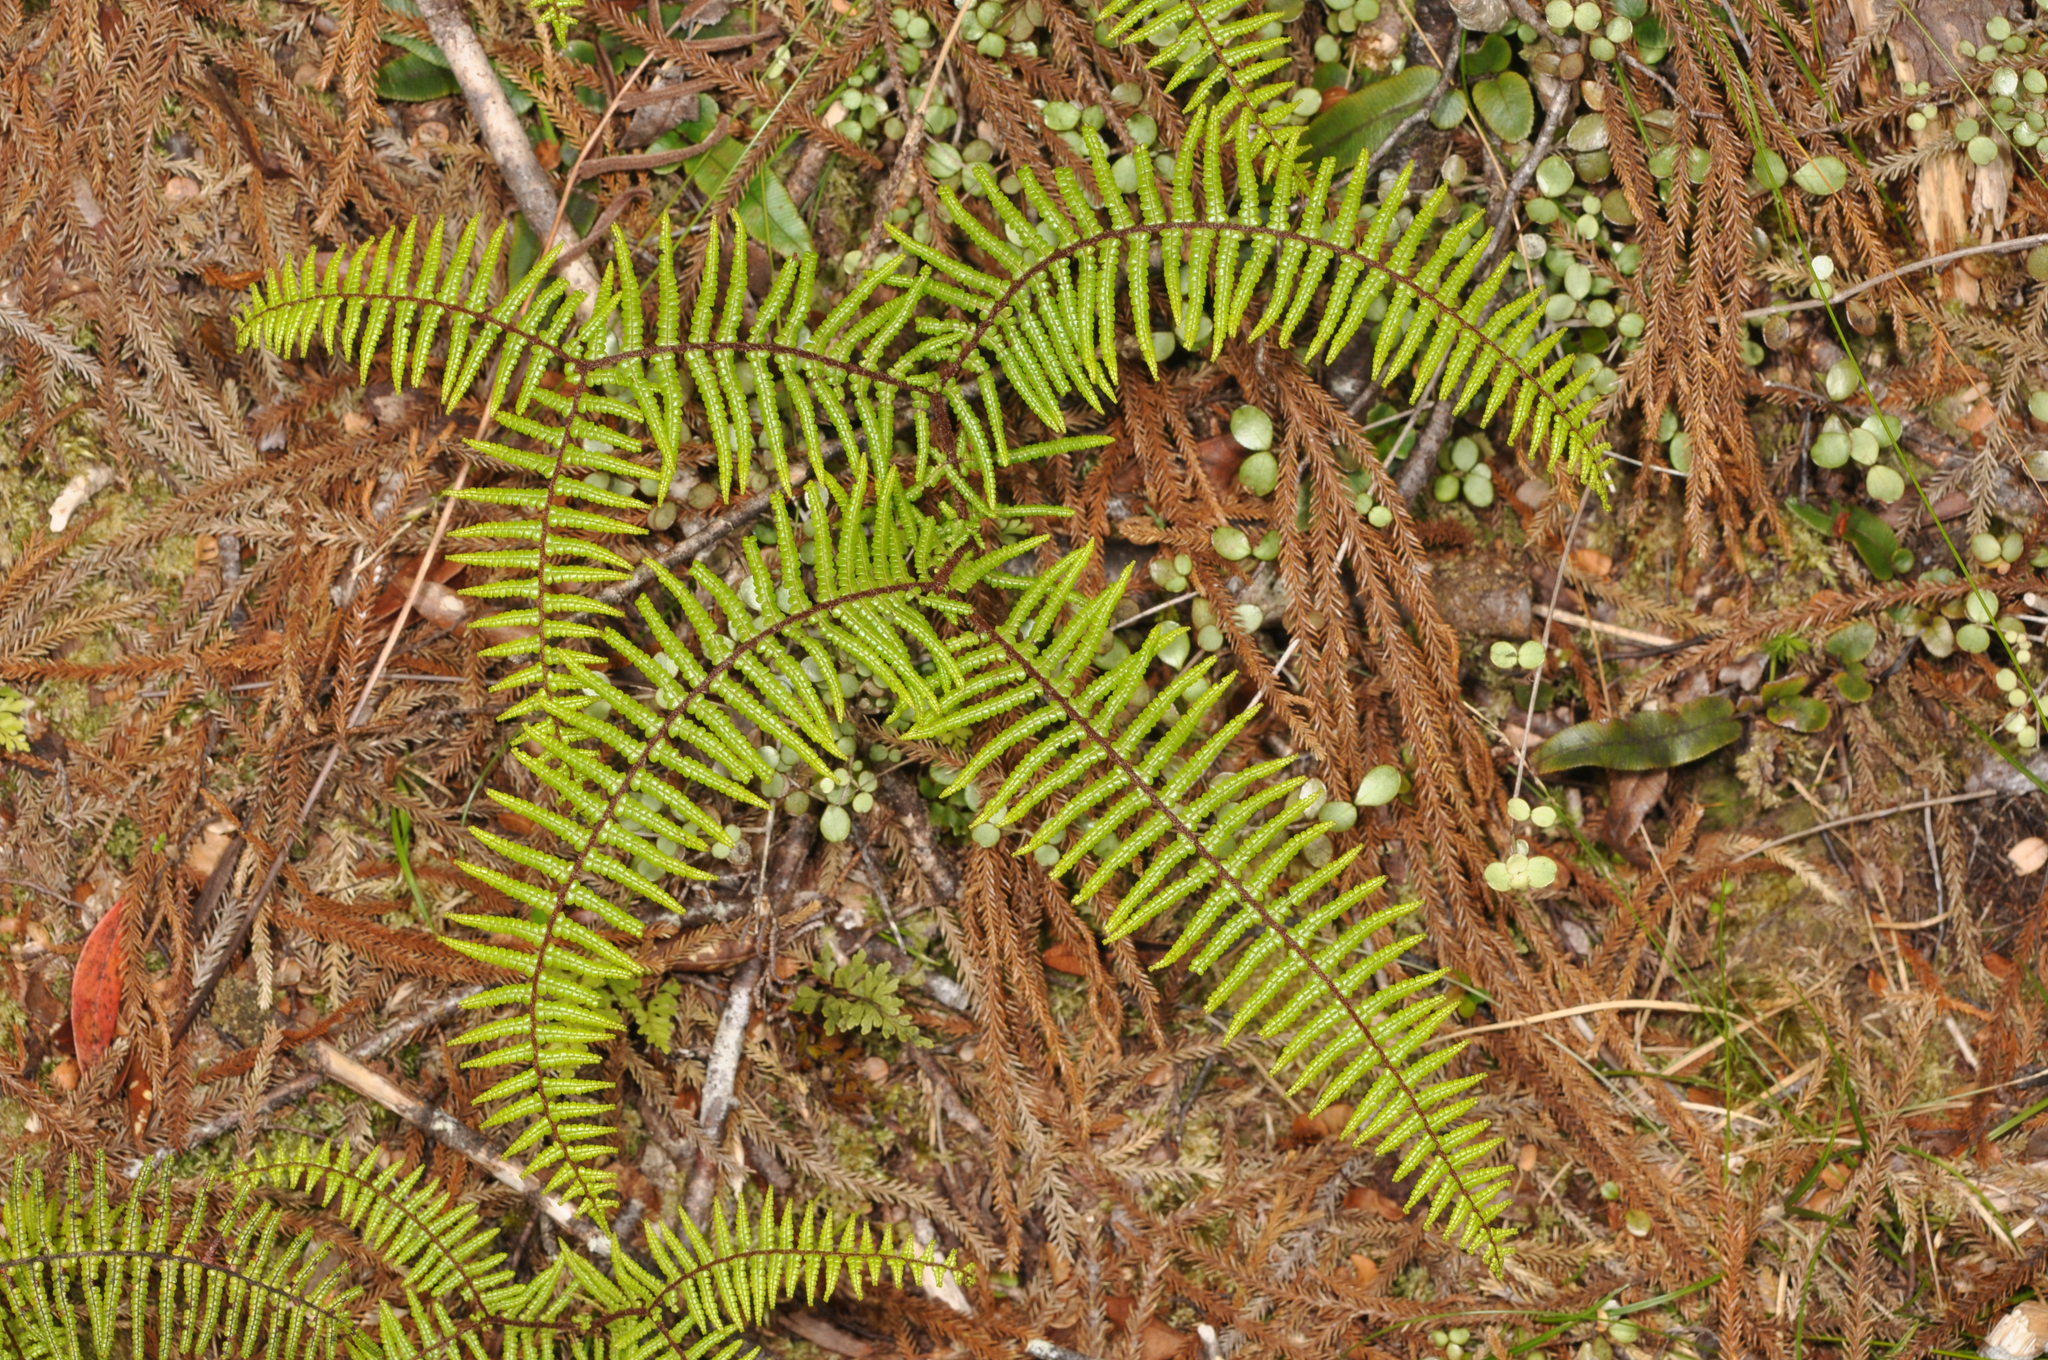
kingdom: Plantae
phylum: Tracheophyta
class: Polypodiopsida
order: Gleicheniales
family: Gleicheniaceae
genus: Gleichenia
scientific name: Gleichenia microphylla
